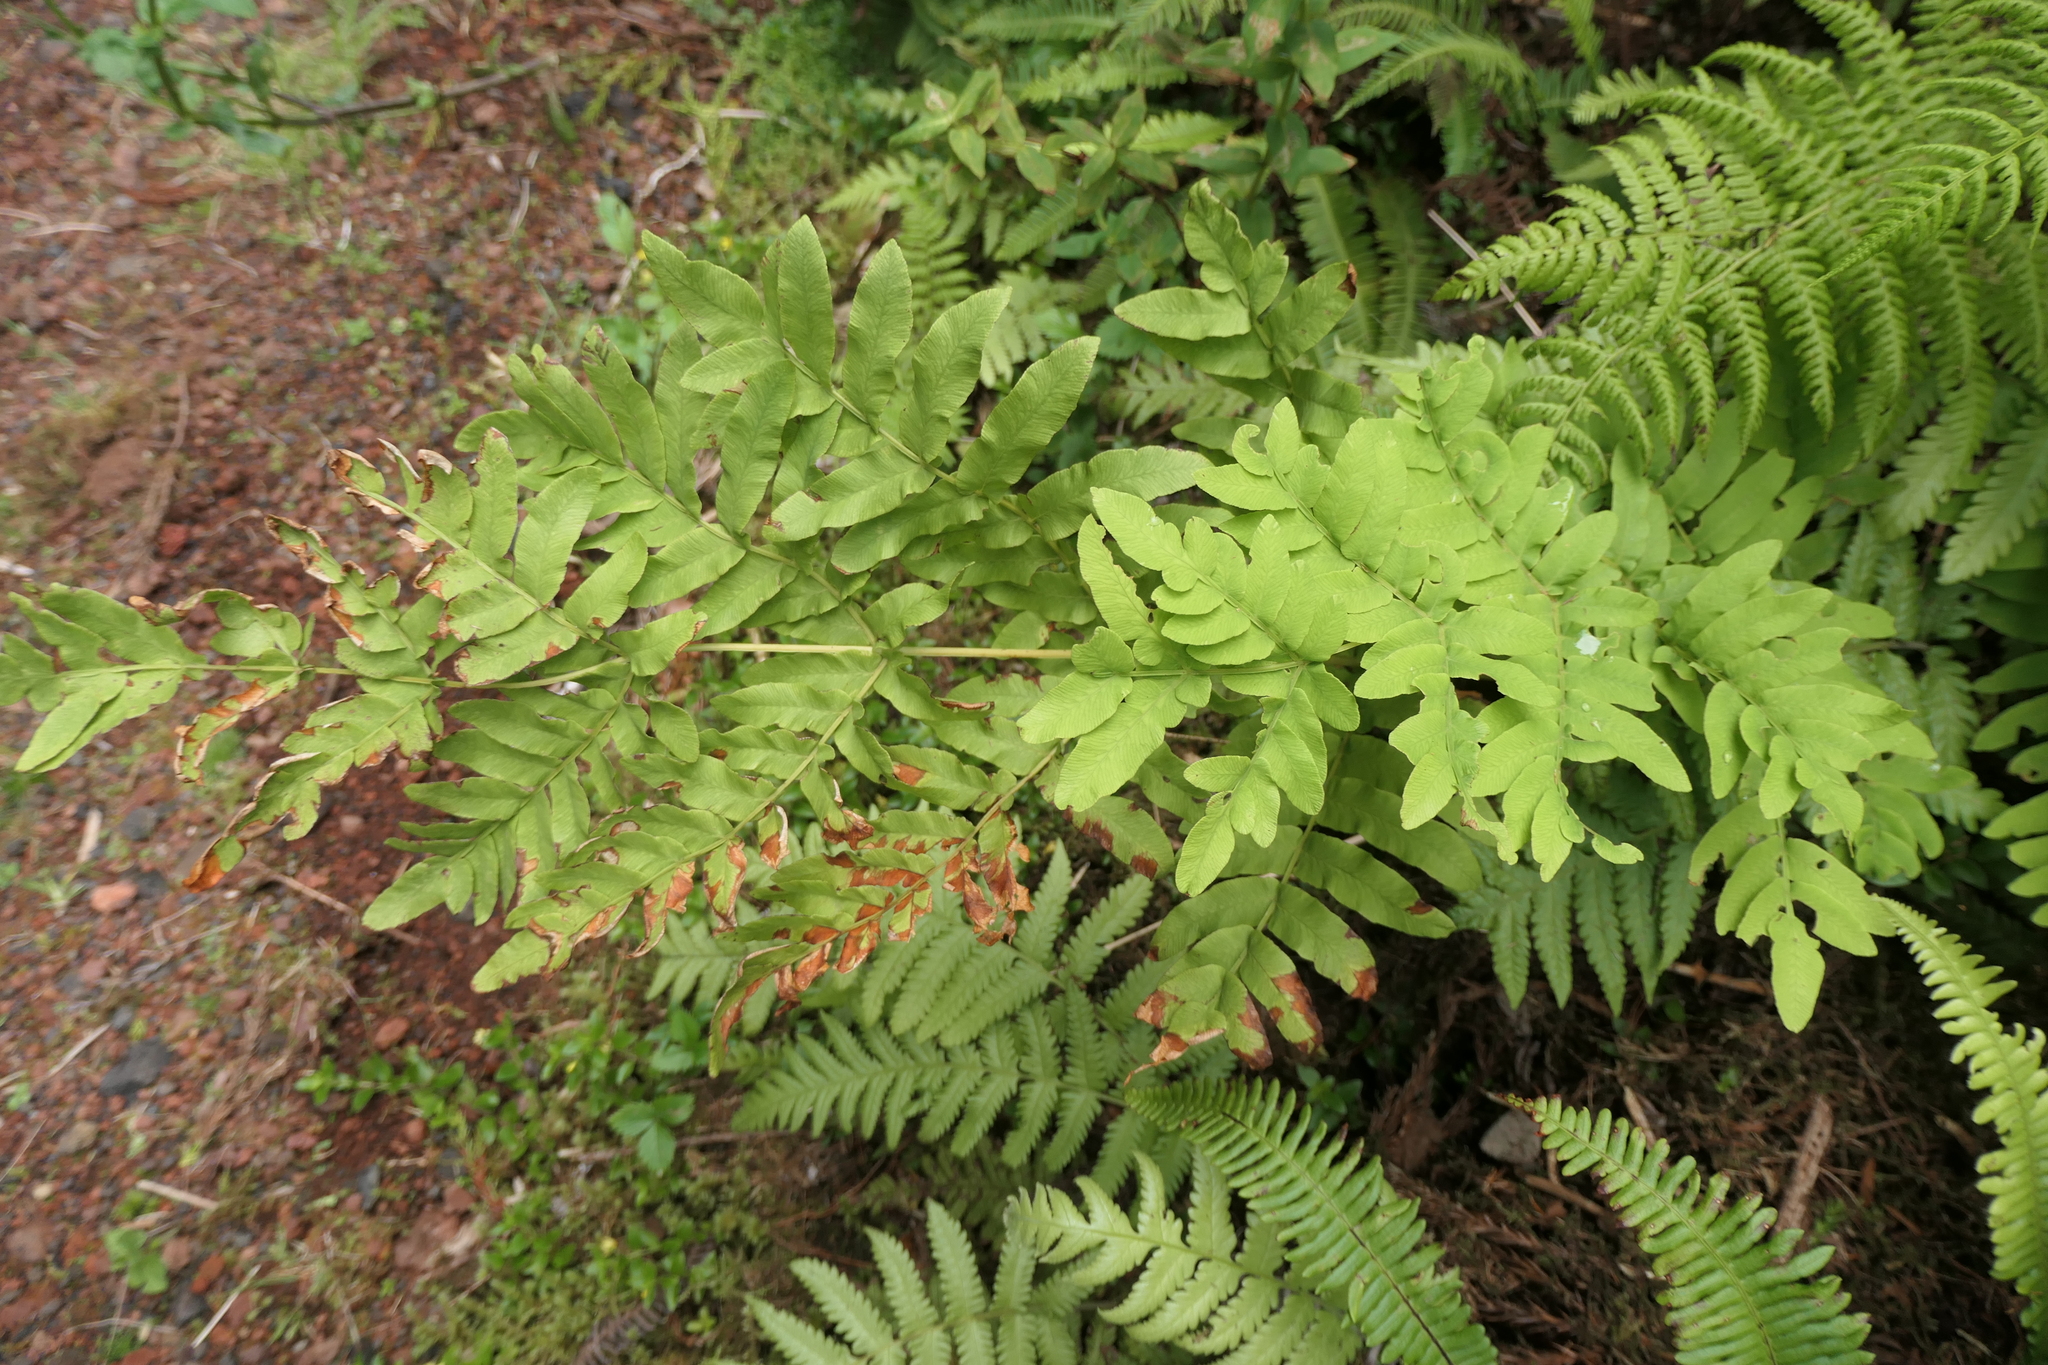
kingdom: Plantae
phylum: Tracheophyta
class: Polypodiopsida
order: Osmundales
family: Osmundaceae
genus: Osmunda
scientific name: Osmunda regalis
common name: Royal fern
